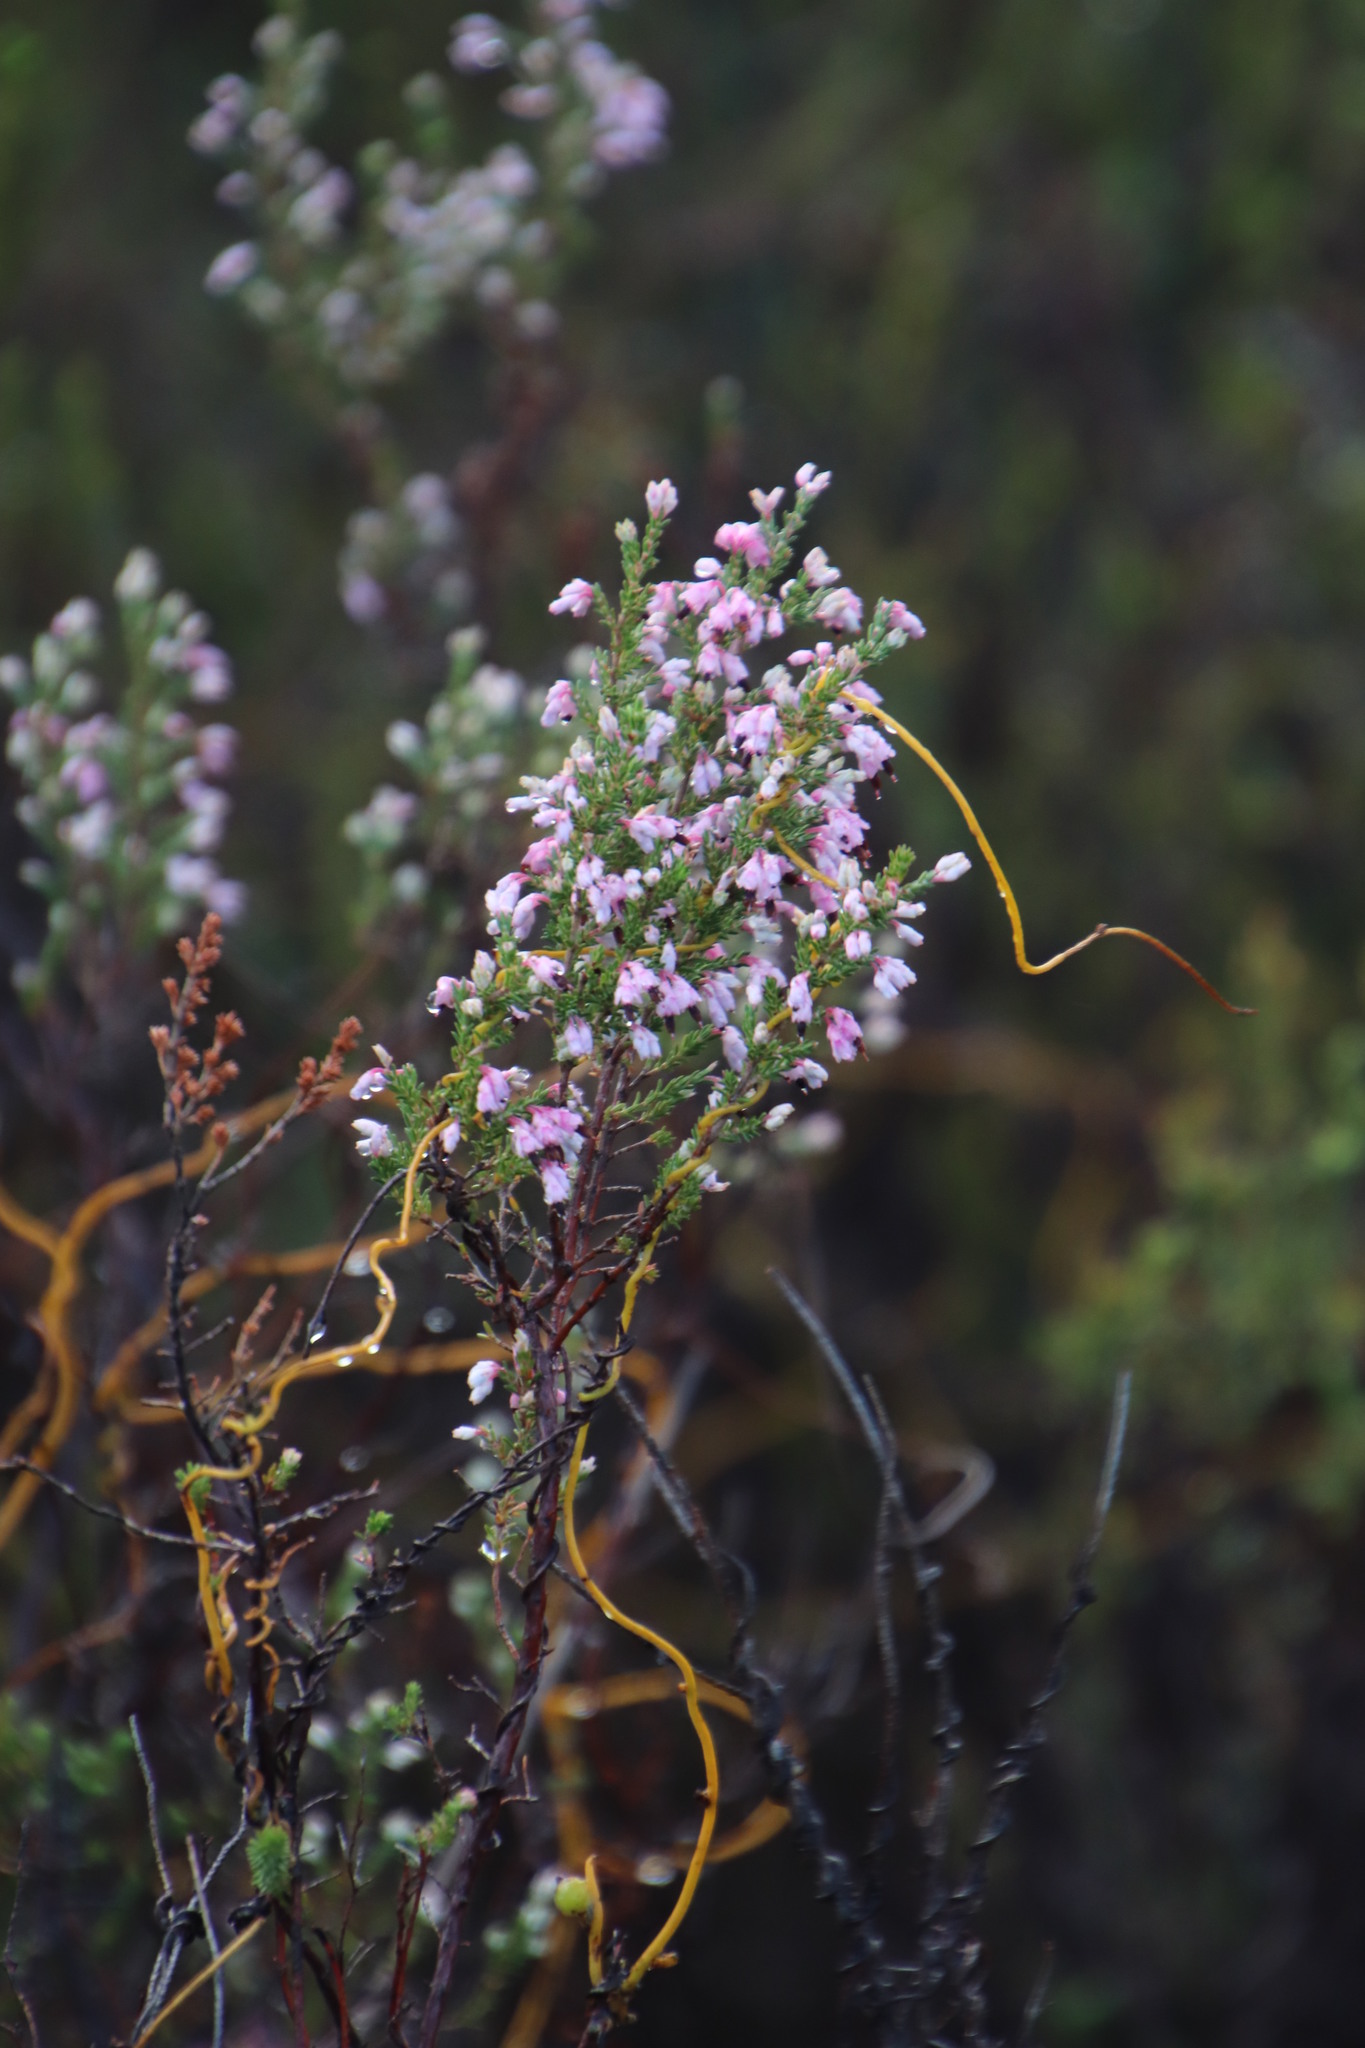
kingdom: Plantae
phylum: Tracheophyta
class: Magnoliopsida
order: Ericales
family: Ericaceae
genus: Erica
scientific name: Erica placentiflora
